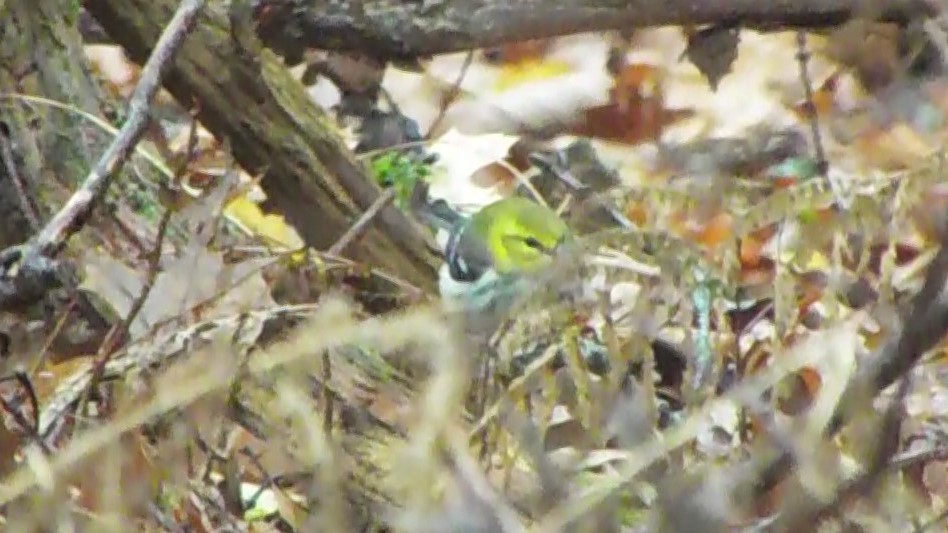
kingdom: Animalia
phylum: Chordata
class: Aves
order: Passeriformes
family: Parulidae
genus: Setophaga
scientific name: Setophaga virens
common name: Black-throated green warbler
